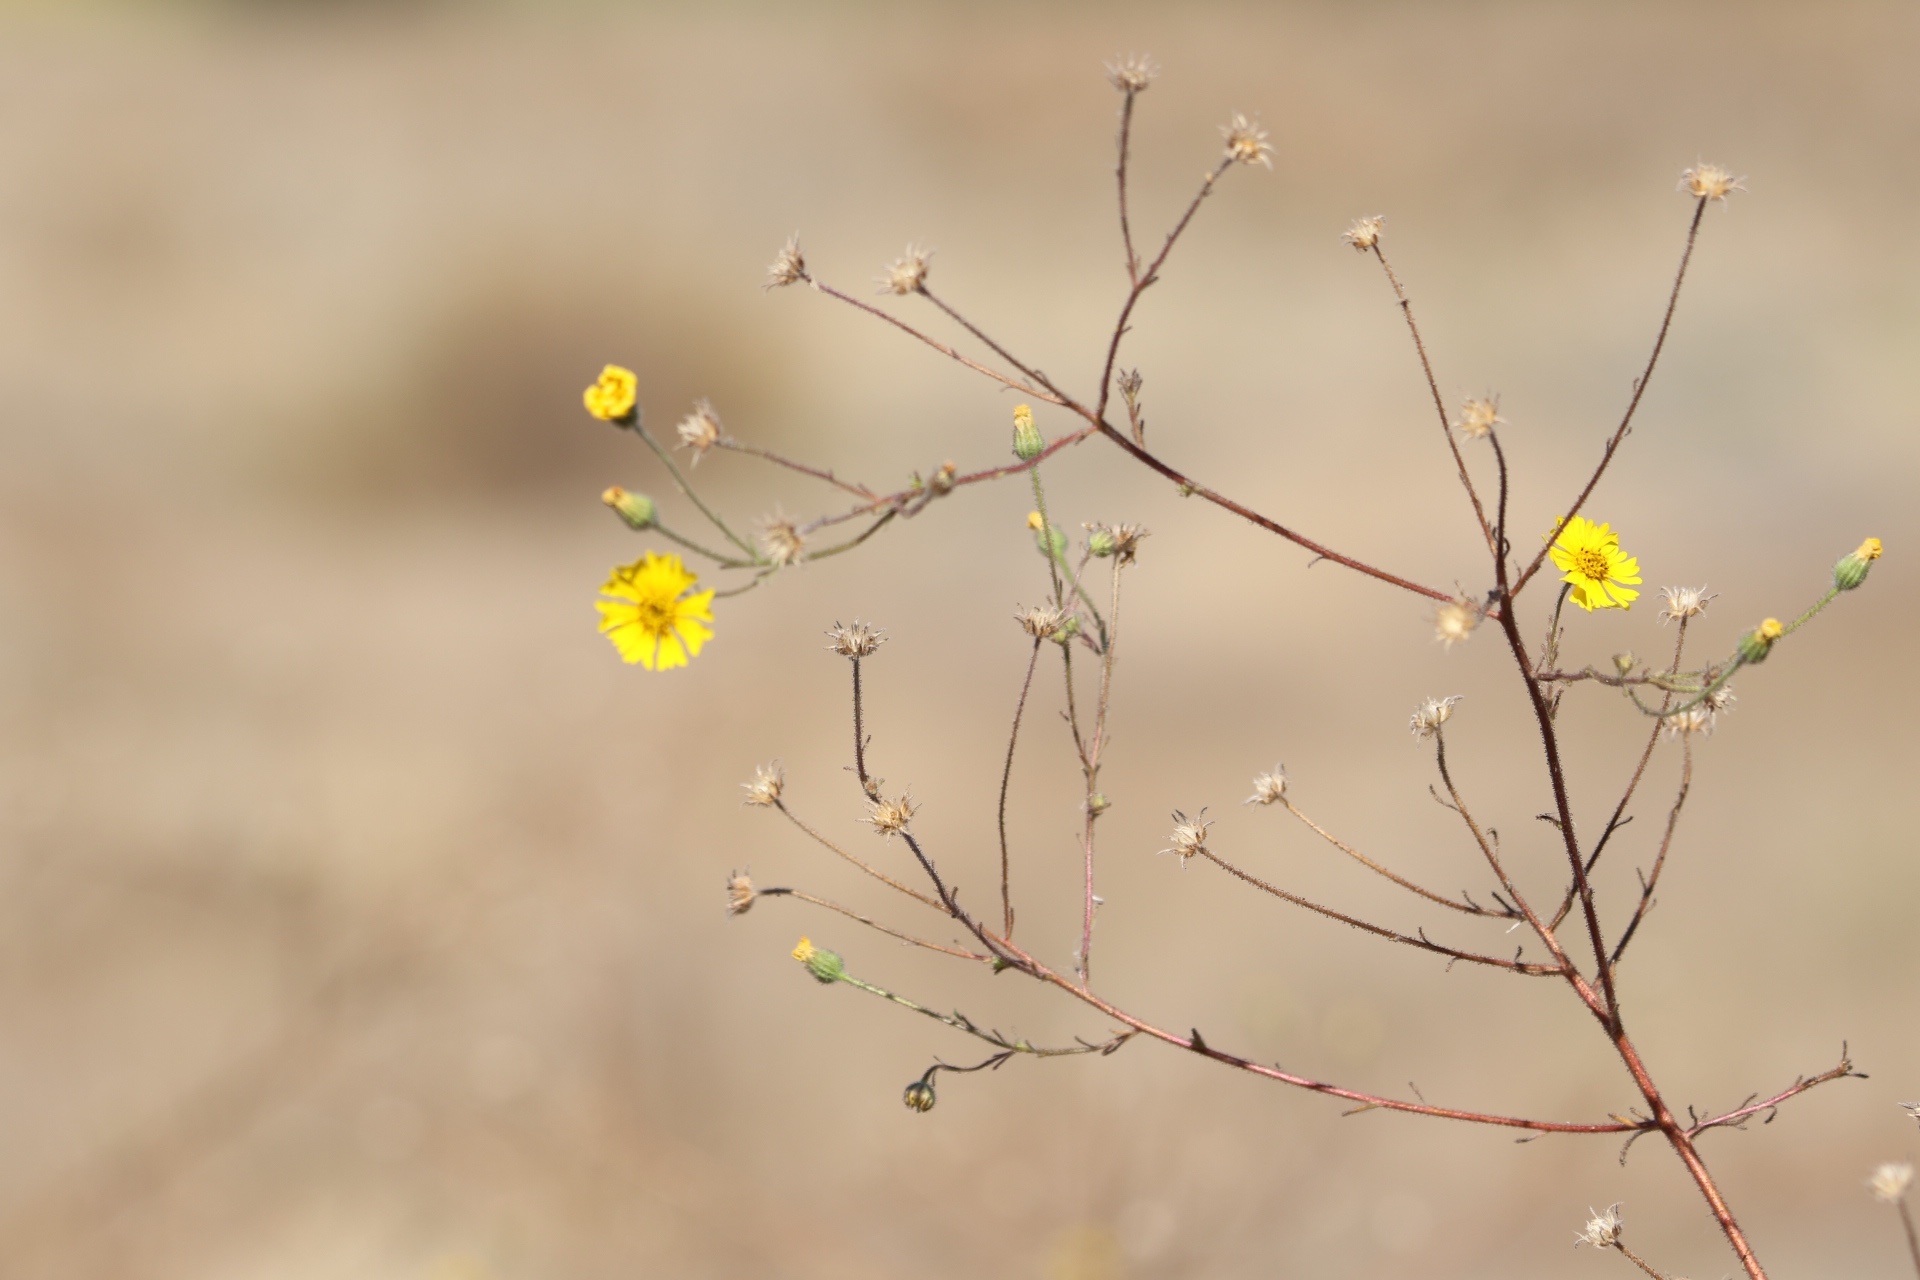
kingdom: Plantae
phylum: Tracheophyta
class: Magnoliopsida
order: Asterales
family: Asteraceae
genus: Madia
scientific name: Madia elegans
